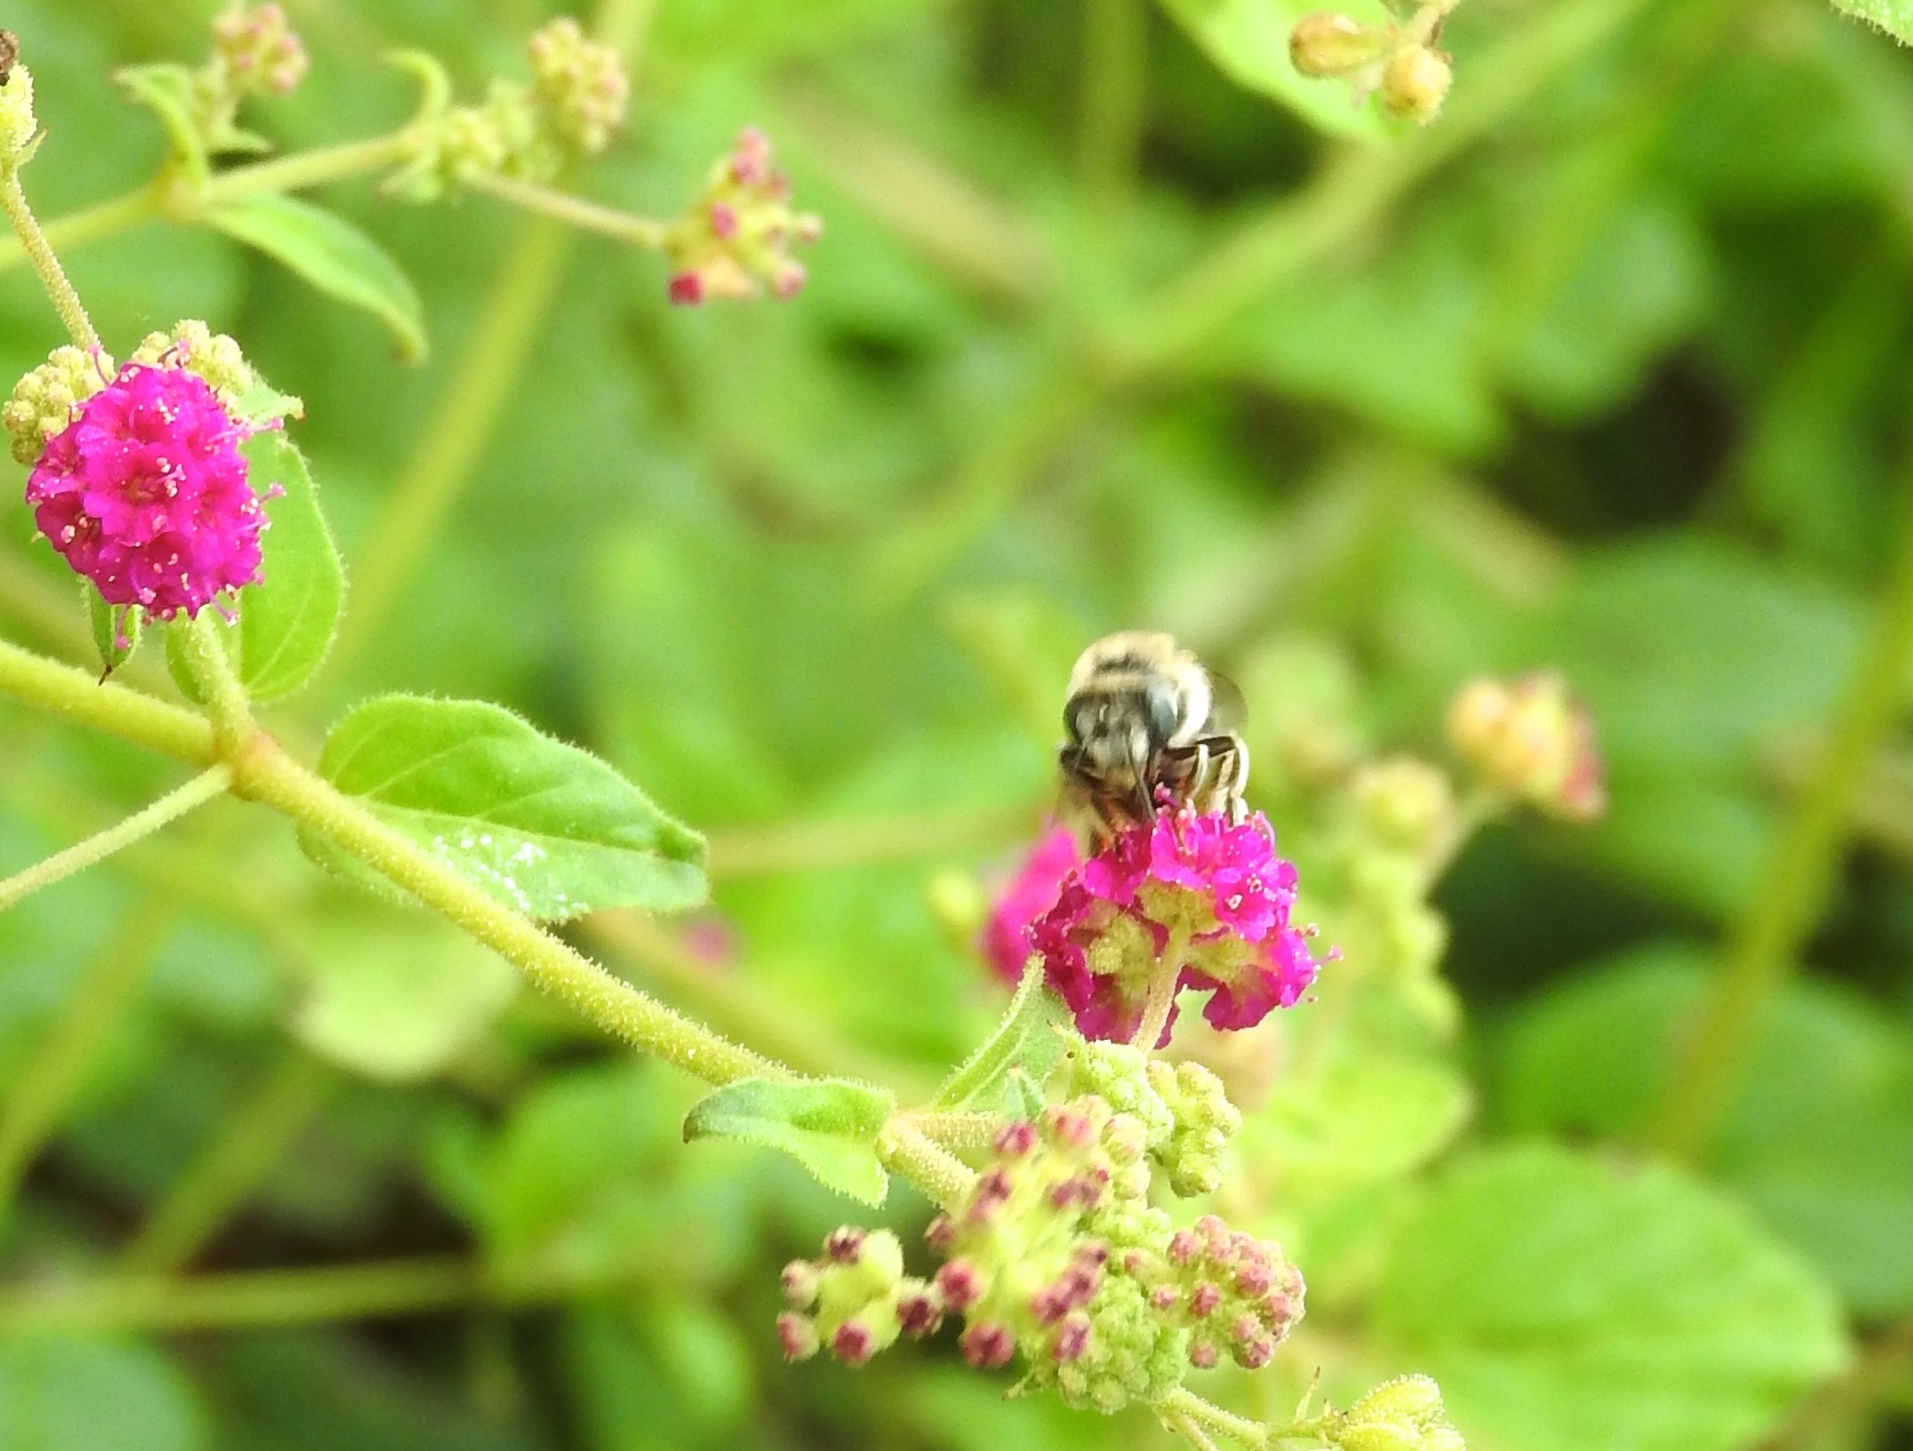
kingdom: Animalia
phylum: Arthropoda
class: Insecta
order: Hymenoptera
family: Apidae
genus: Tetraloniella
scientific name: Tetraloniella
